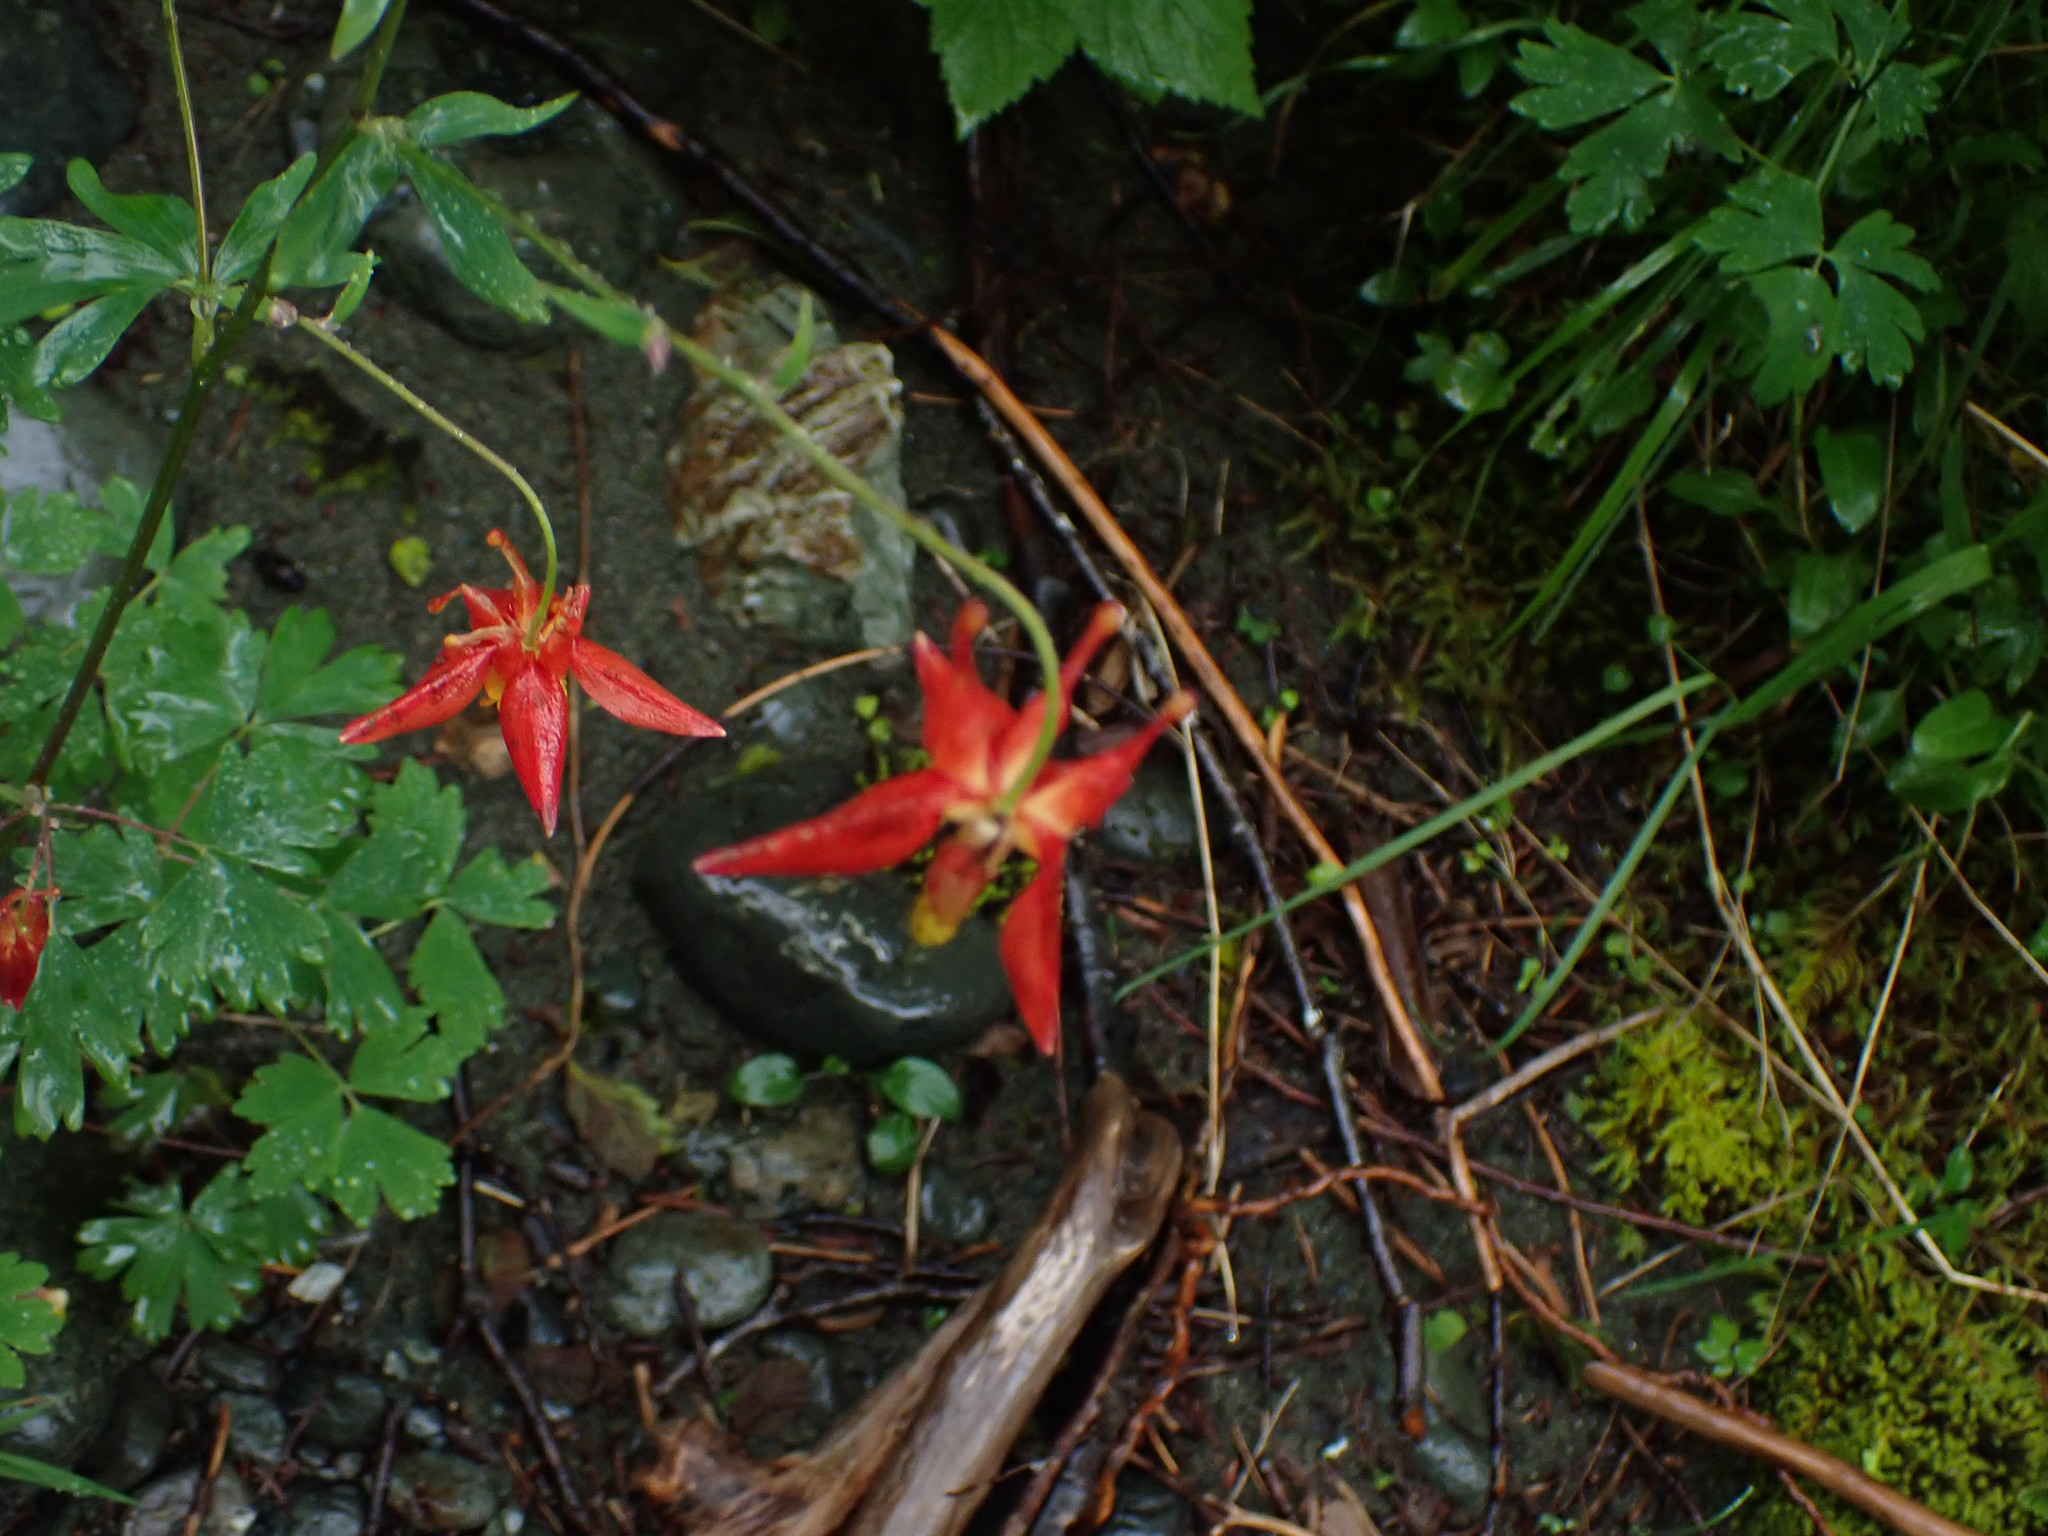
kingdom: Plantae
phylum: Tracheophyta
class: Magnoliopsida
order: Ranunculales
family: Ranunculaceae
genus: Aquilegia
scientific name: Aquilegia formosa
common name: Sitka columbine
